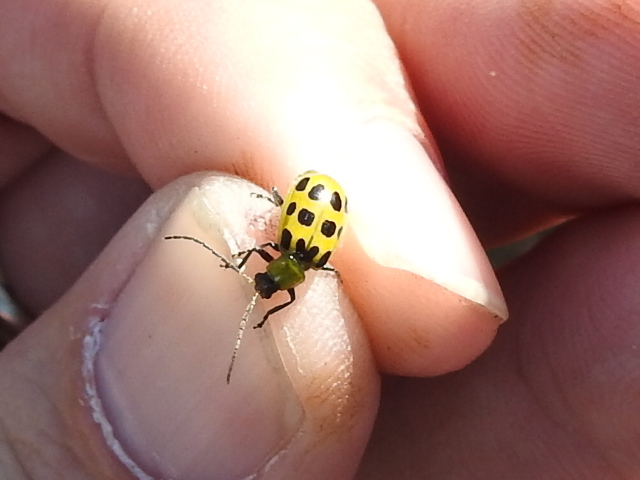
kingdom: Animalia
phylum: Arthropoda
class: Insecta
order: Coleoptera
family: Chrysomelidae
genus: Diabrotica
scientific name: Diabrotica undecimpunctata
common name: Spotted cucumber beetle
